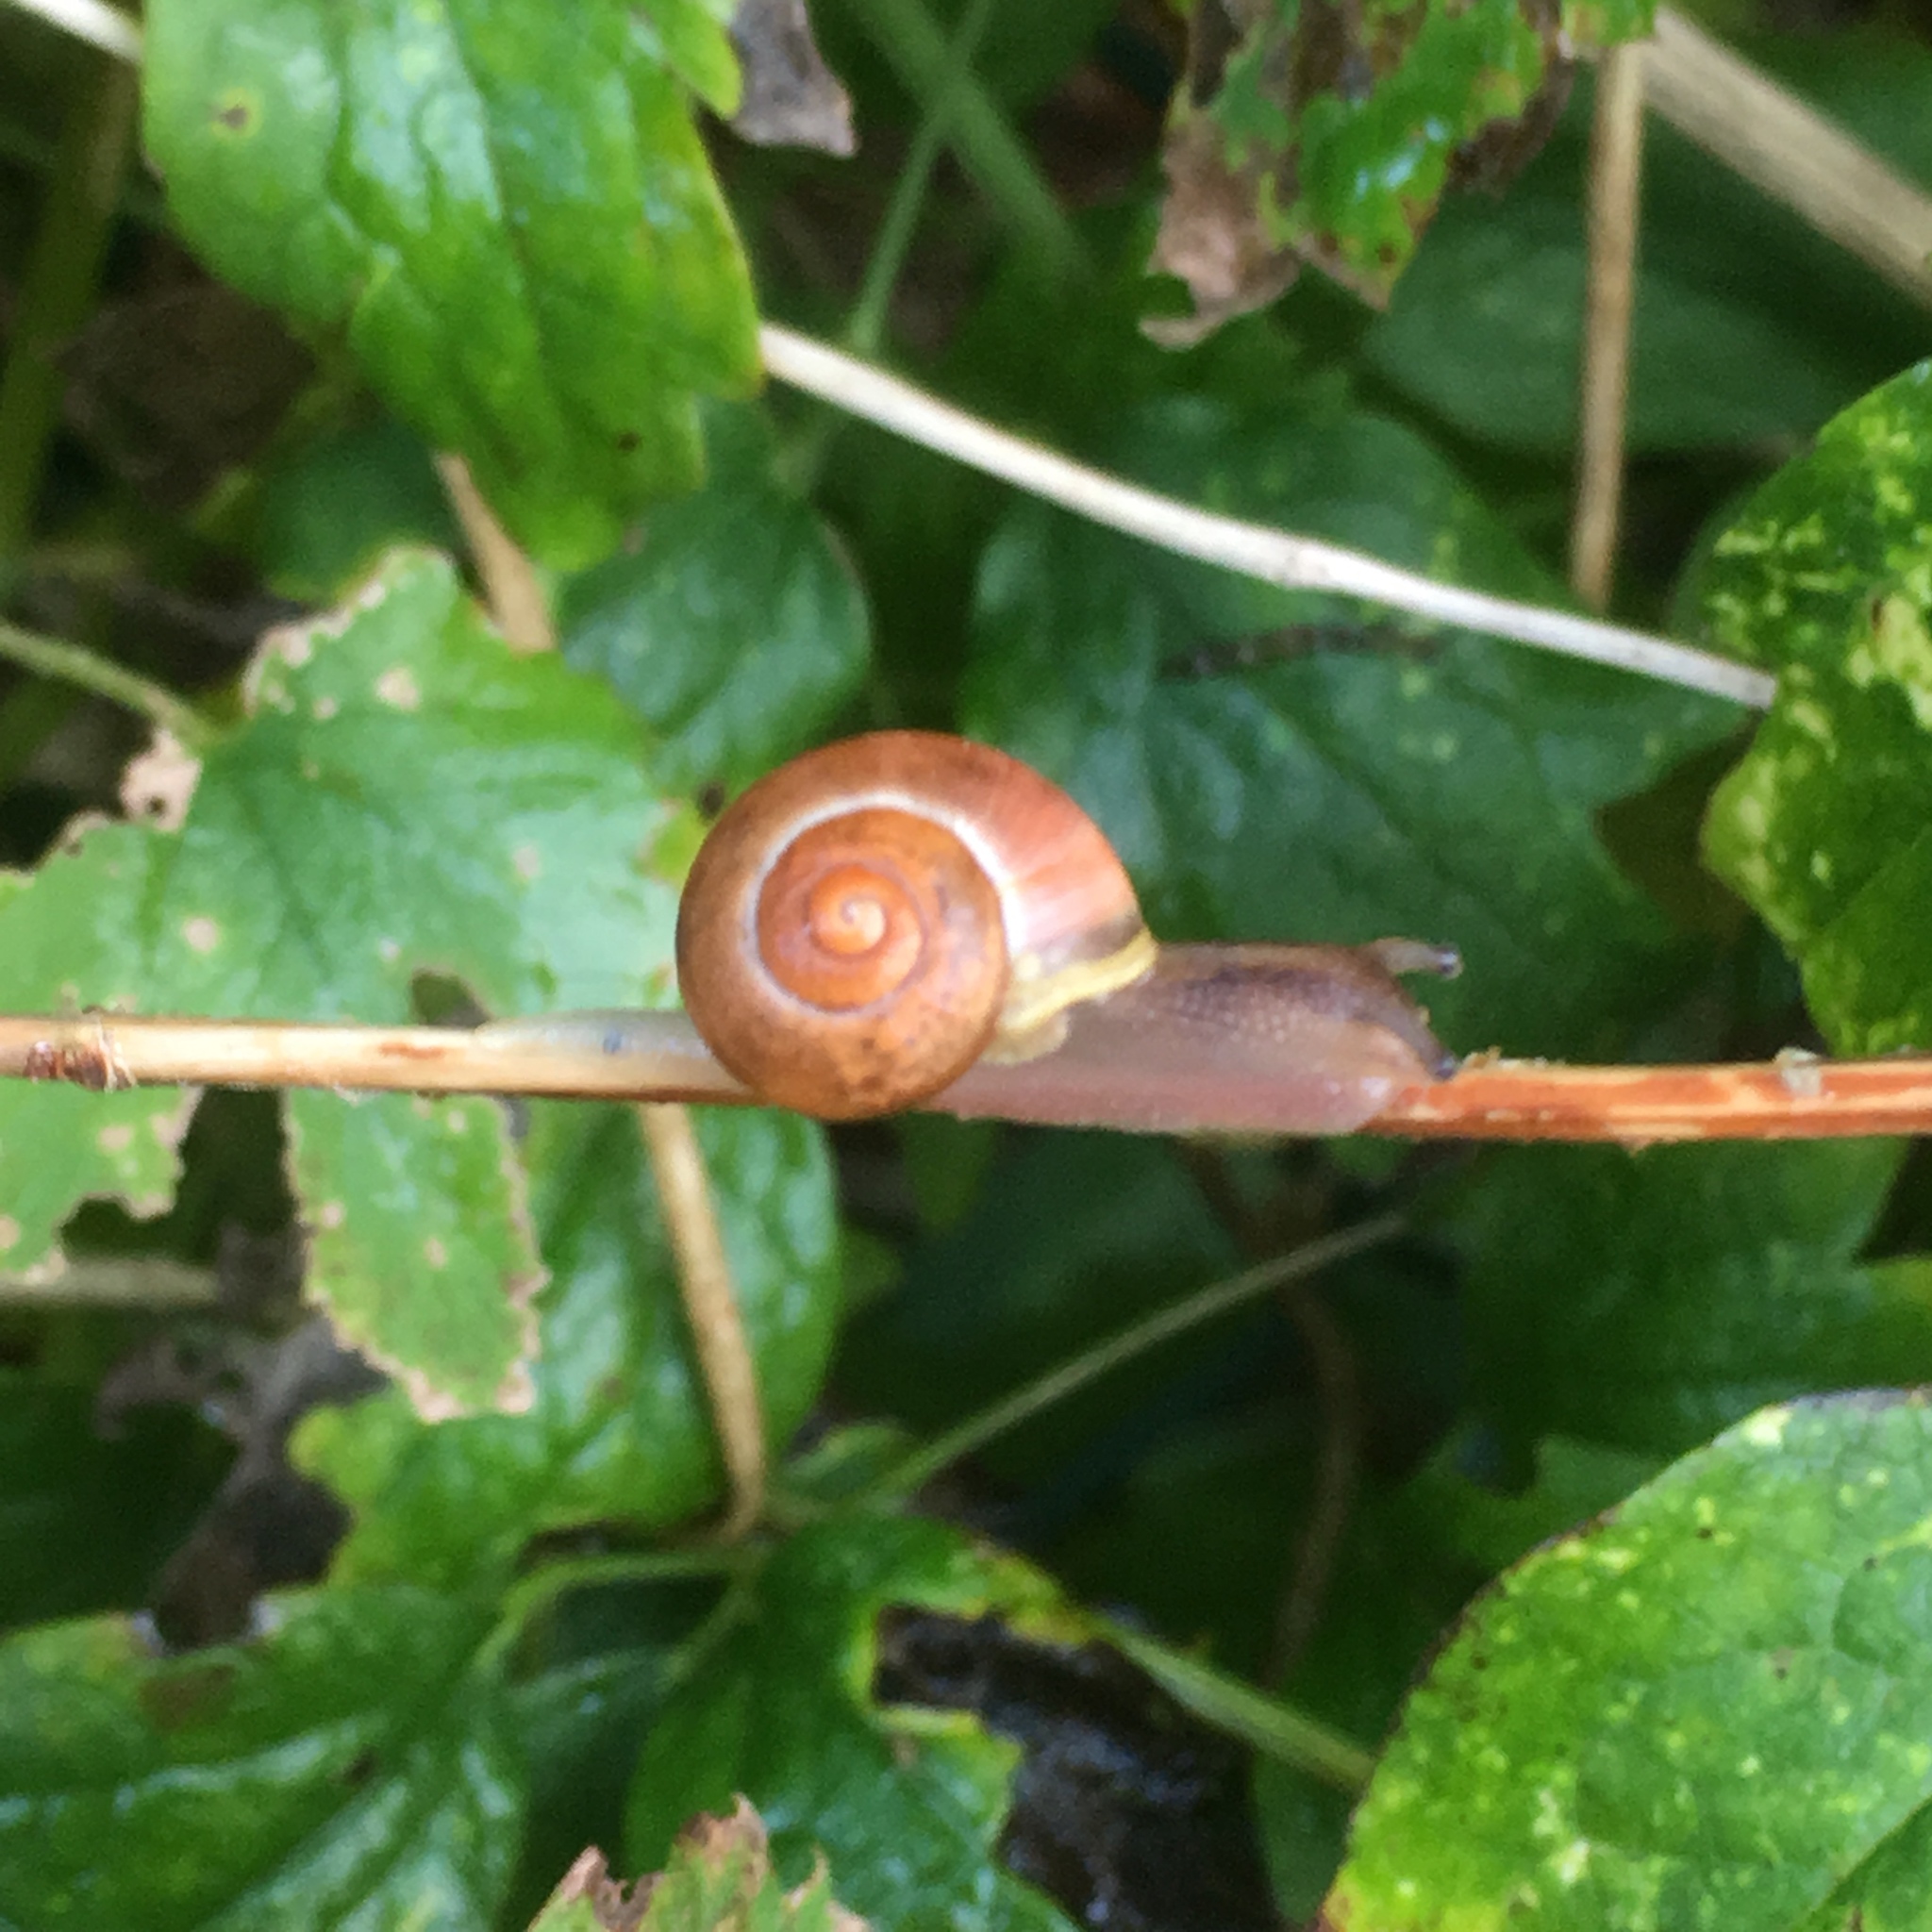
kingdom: Animalia
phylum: Mollusca
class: Gastropoda
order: Stylommatophora
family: Helicidae
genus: Cepaea
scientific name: Cepaea
